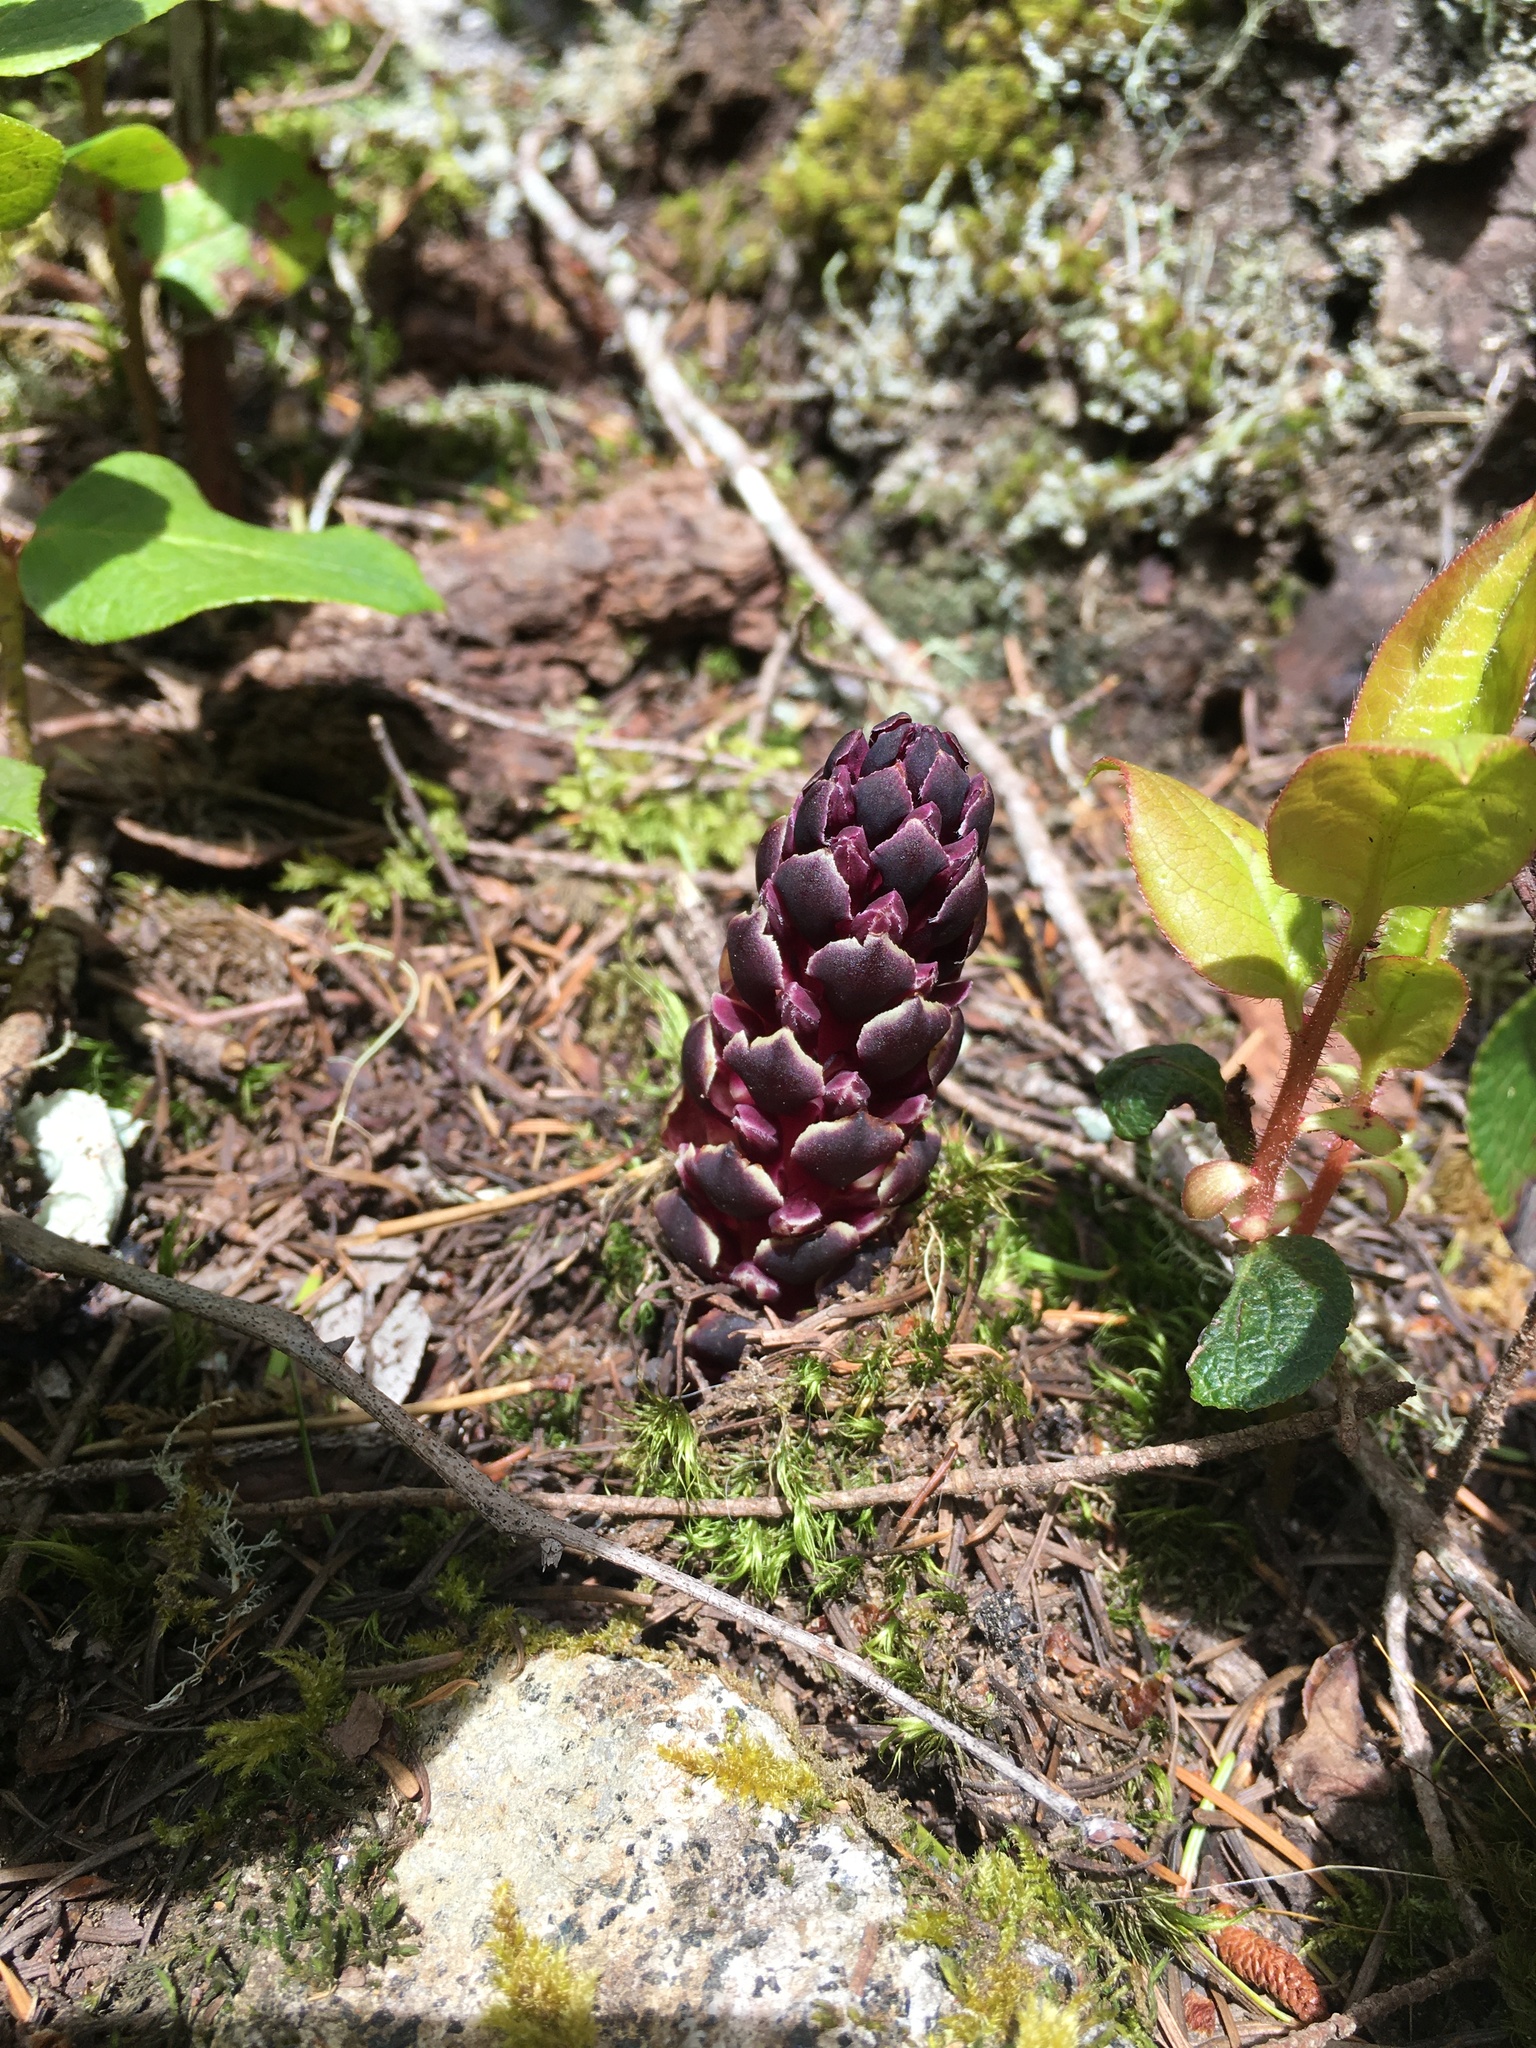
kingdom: Plantae
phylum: Tracheophyta
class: Magnoliopsida
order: Lamiales
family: Orobanchaceae
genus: Kopsiopsis
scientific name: Kopsiopsis hookeri
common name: Hooker's groundcone
